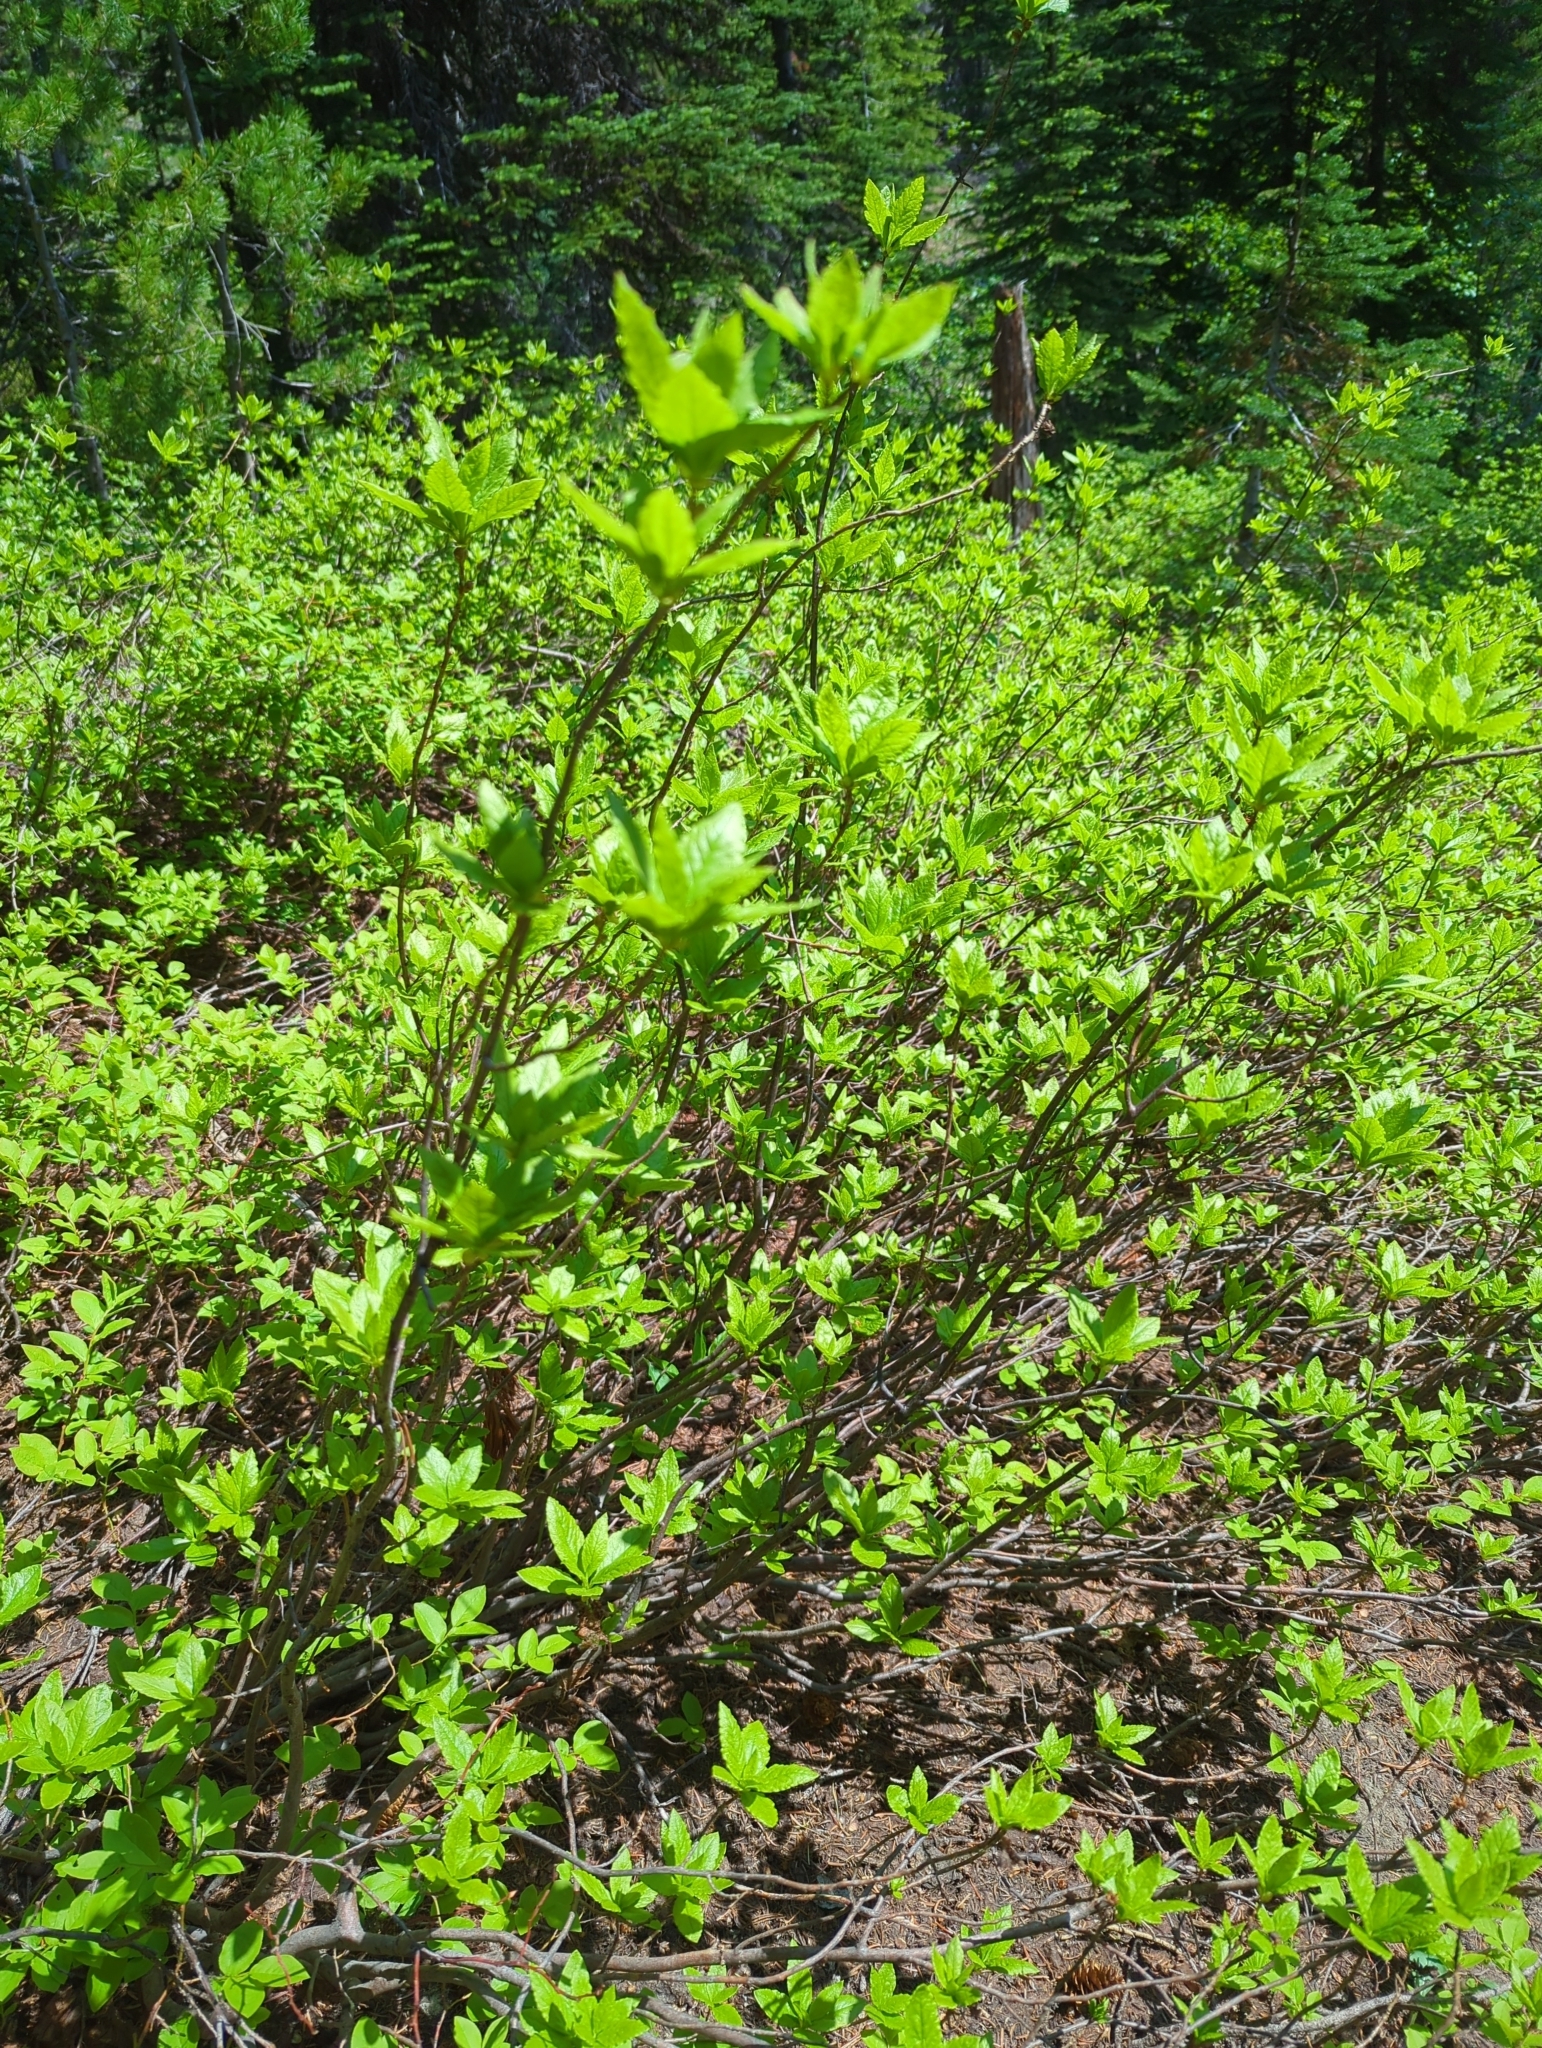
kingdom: Plantae
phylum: Tracheophyta
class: Magnoliopsida
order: Ericales
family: Ericaceae
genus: Rhododendron
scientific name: Rhododendron albiflorum
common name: White rhododendron
